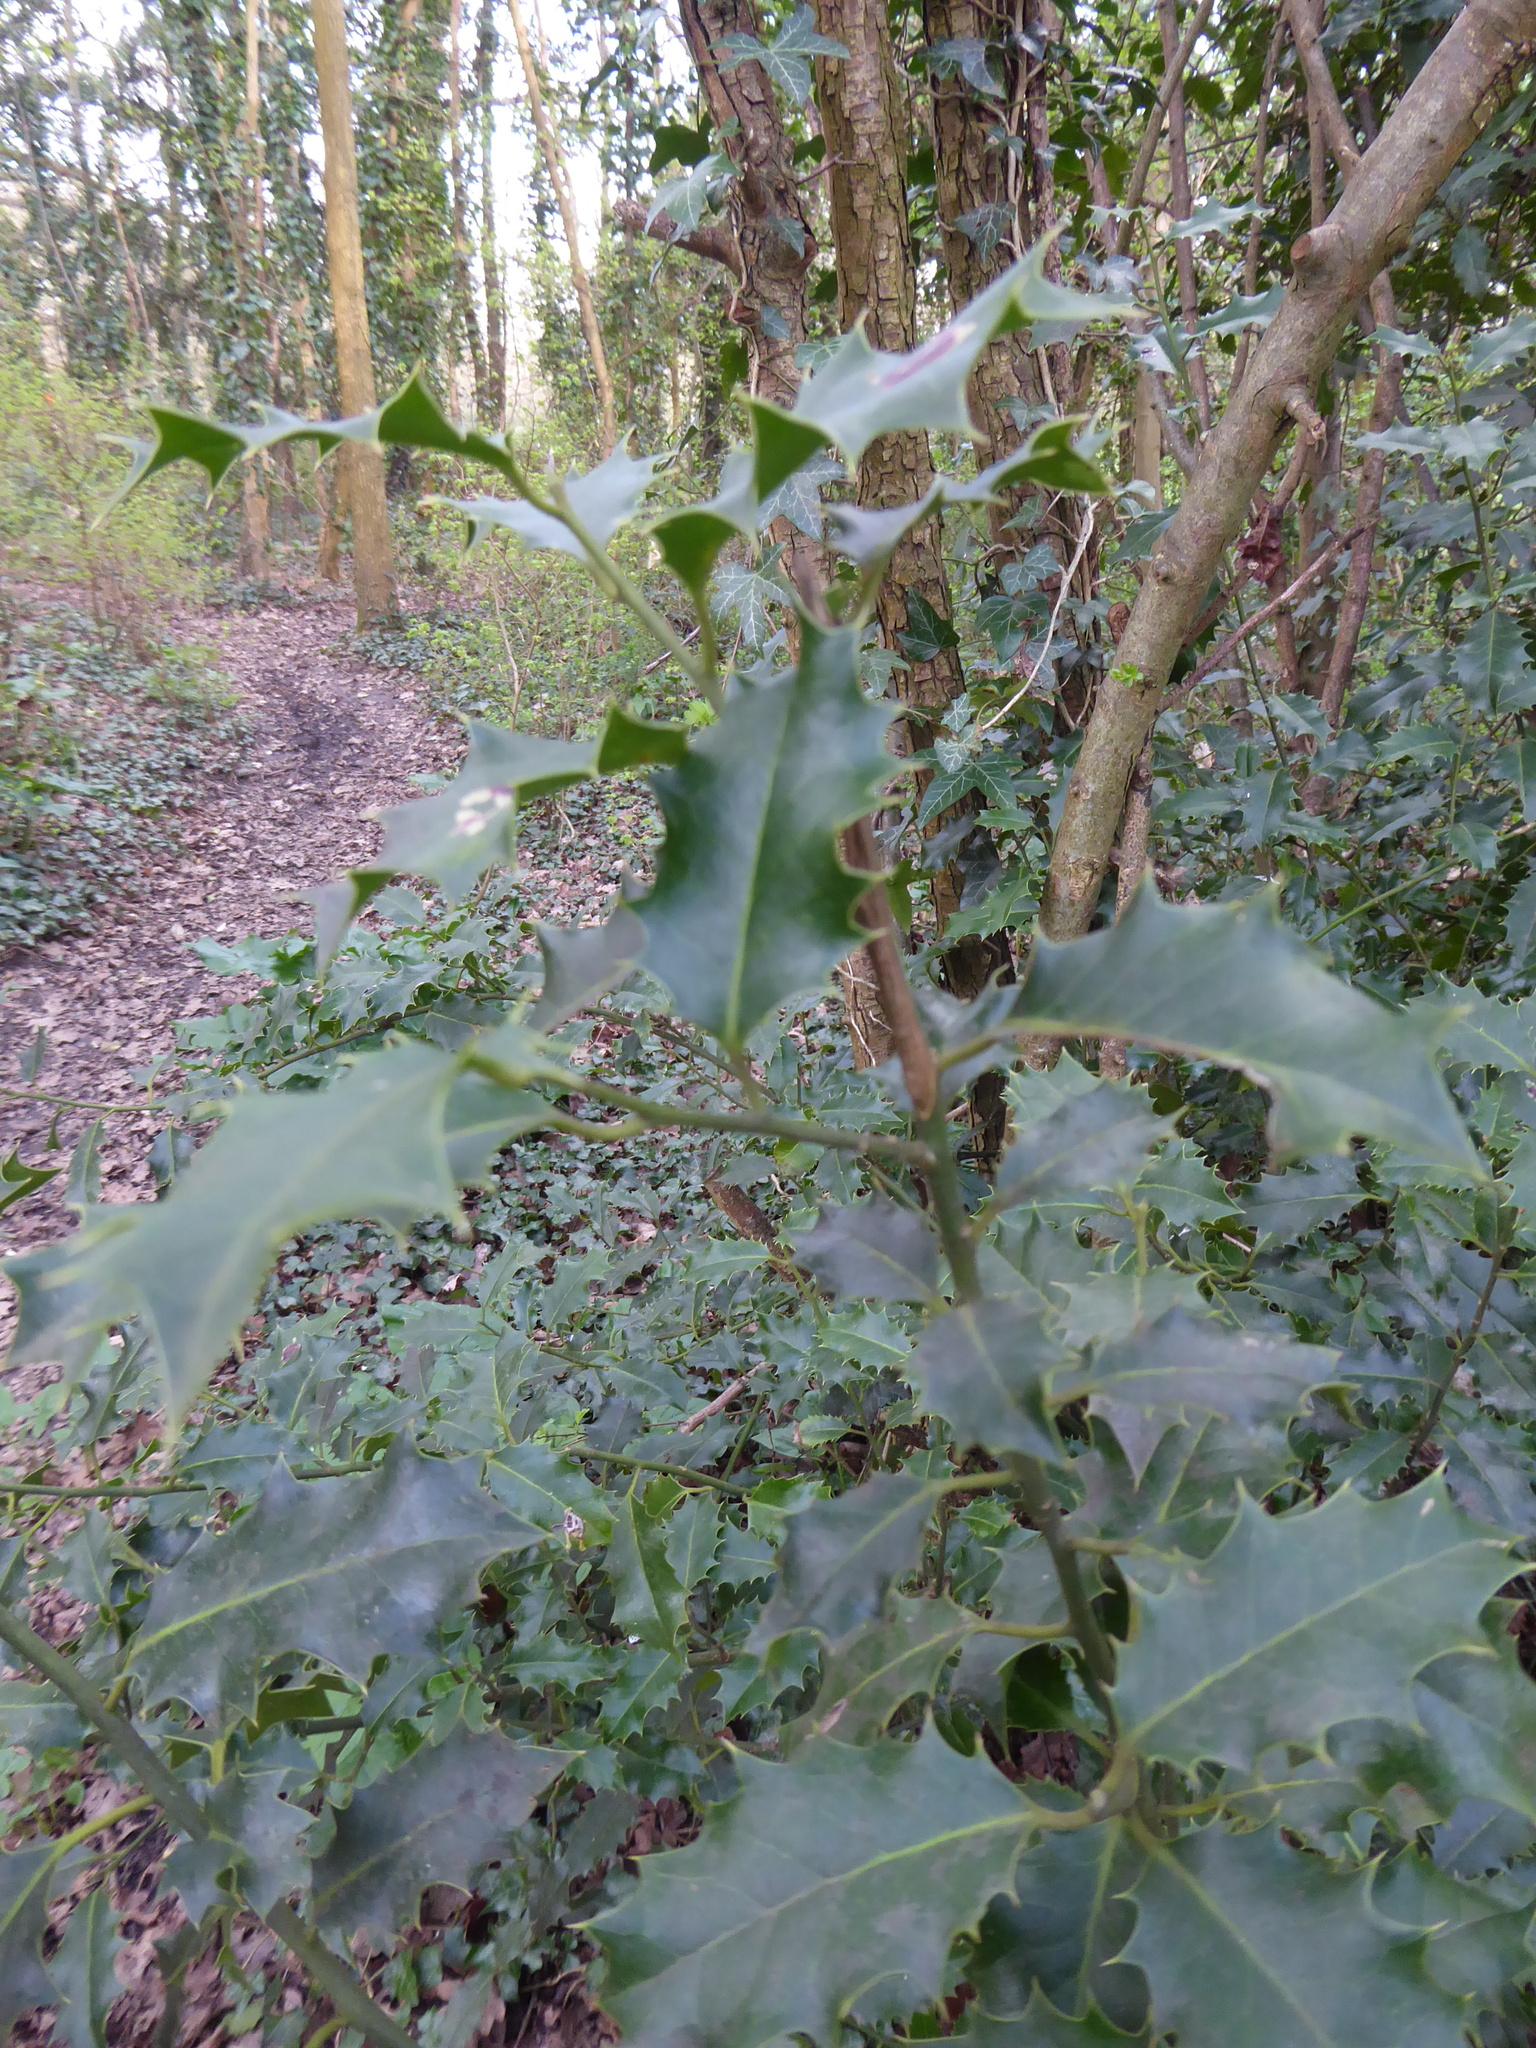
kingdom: Plantae
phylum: Tracheophyta
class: Magnoliopsida
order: Aquifoliales
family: Aquifoliaceae
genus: Ilex
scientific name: Ilex aquifolium
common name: English holly
